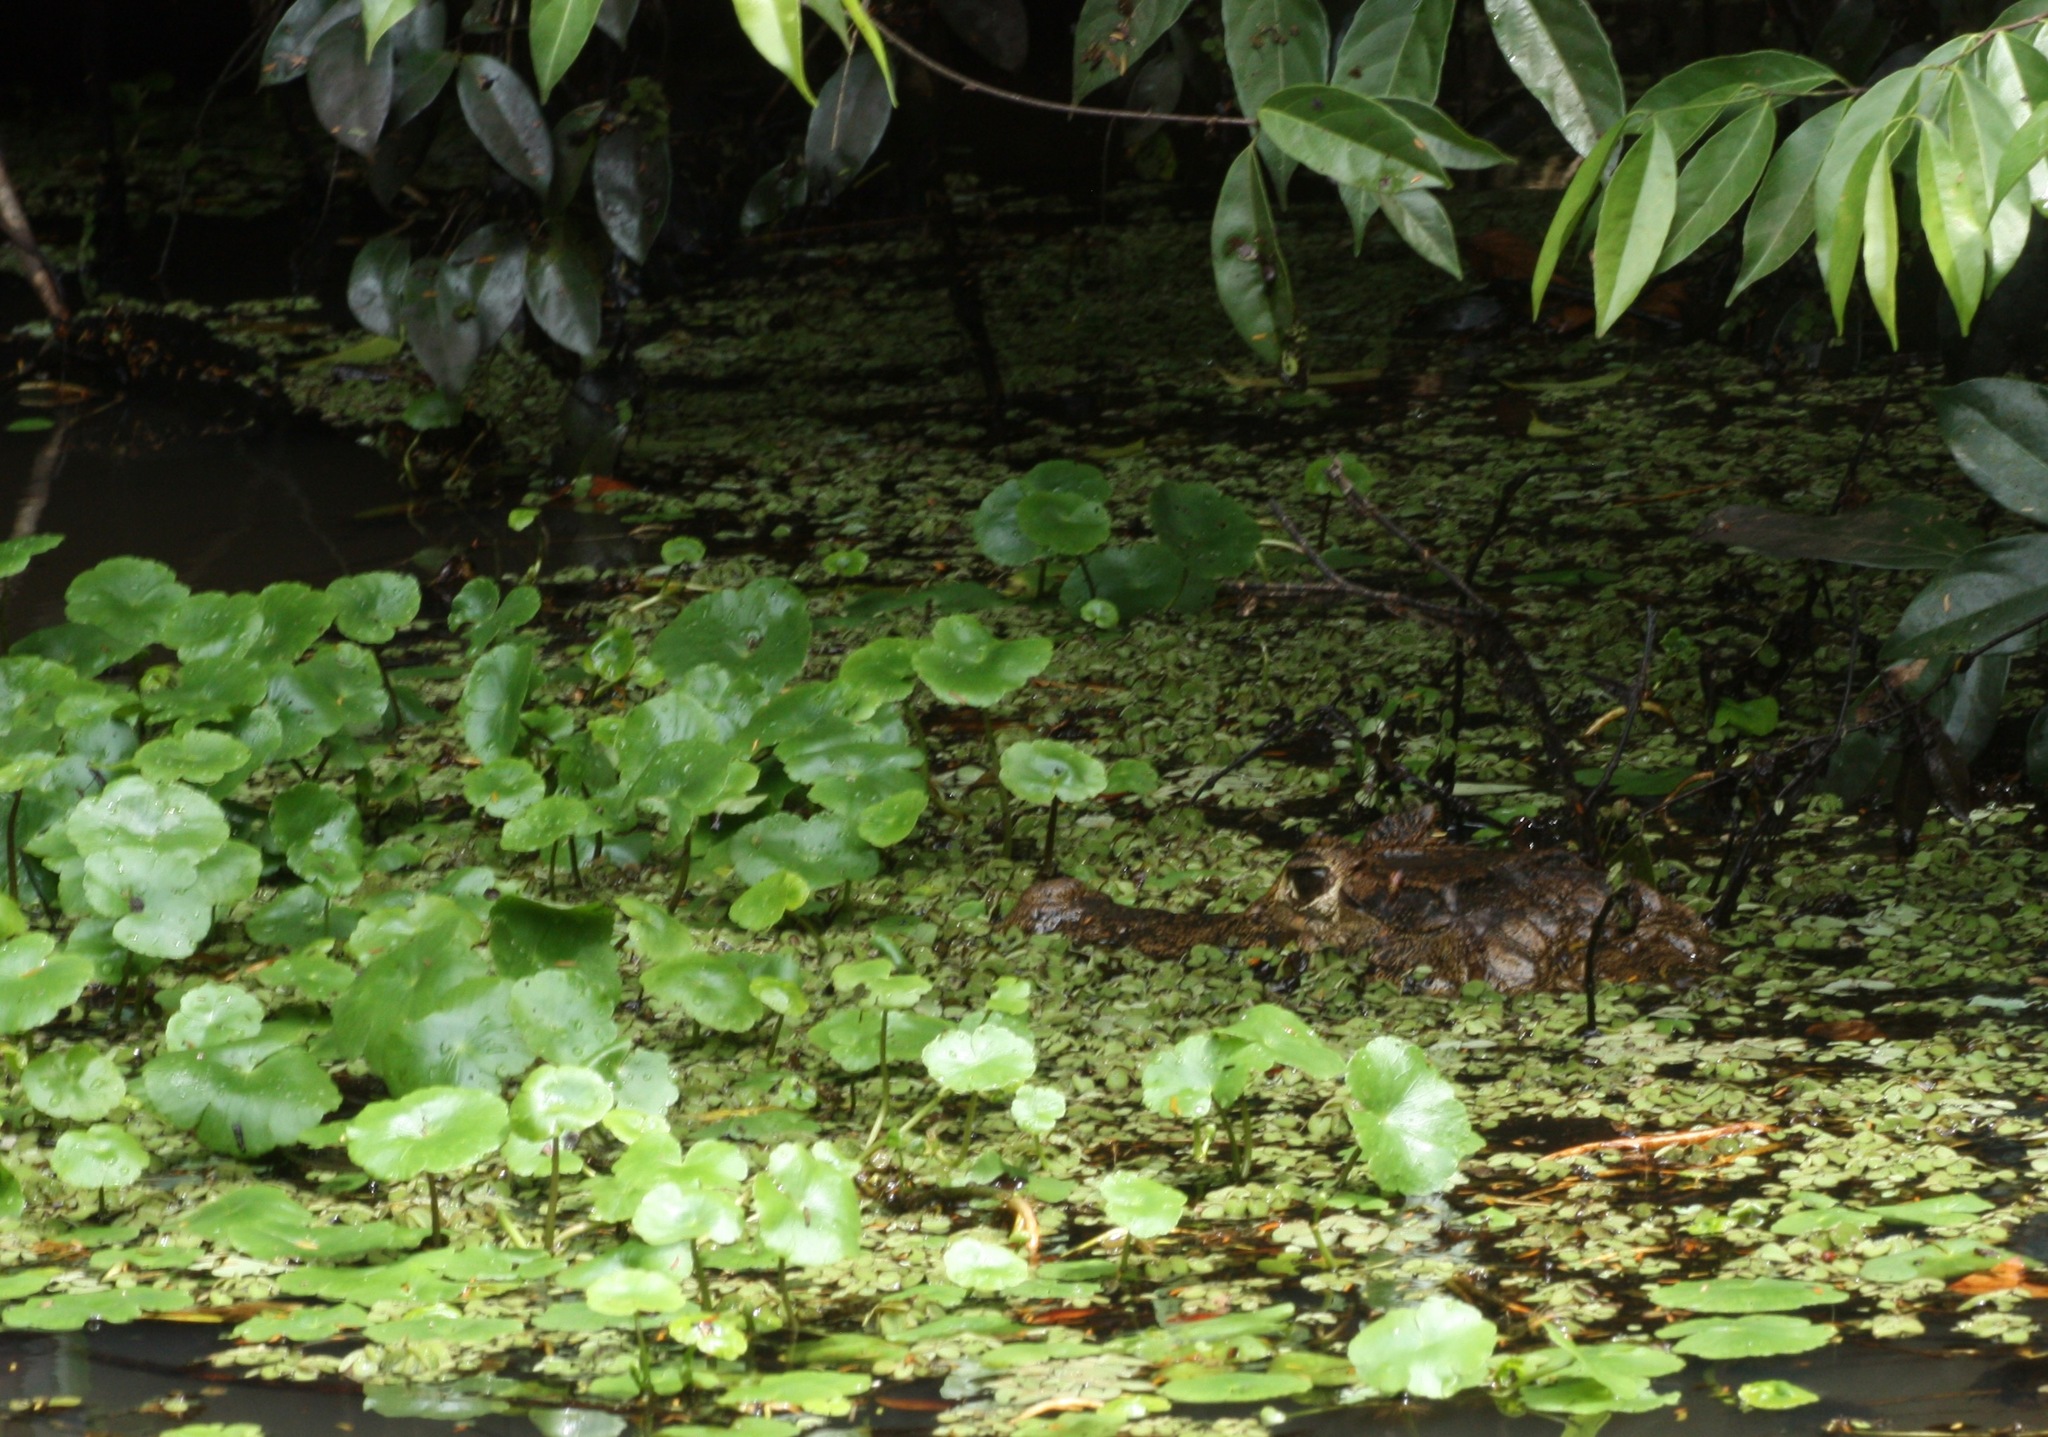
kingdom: Animalia
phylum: Chordata
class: Crocodylia
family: Alligatoridae
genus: Caiman
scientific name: Caiman crocodilus
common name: Common caiman
